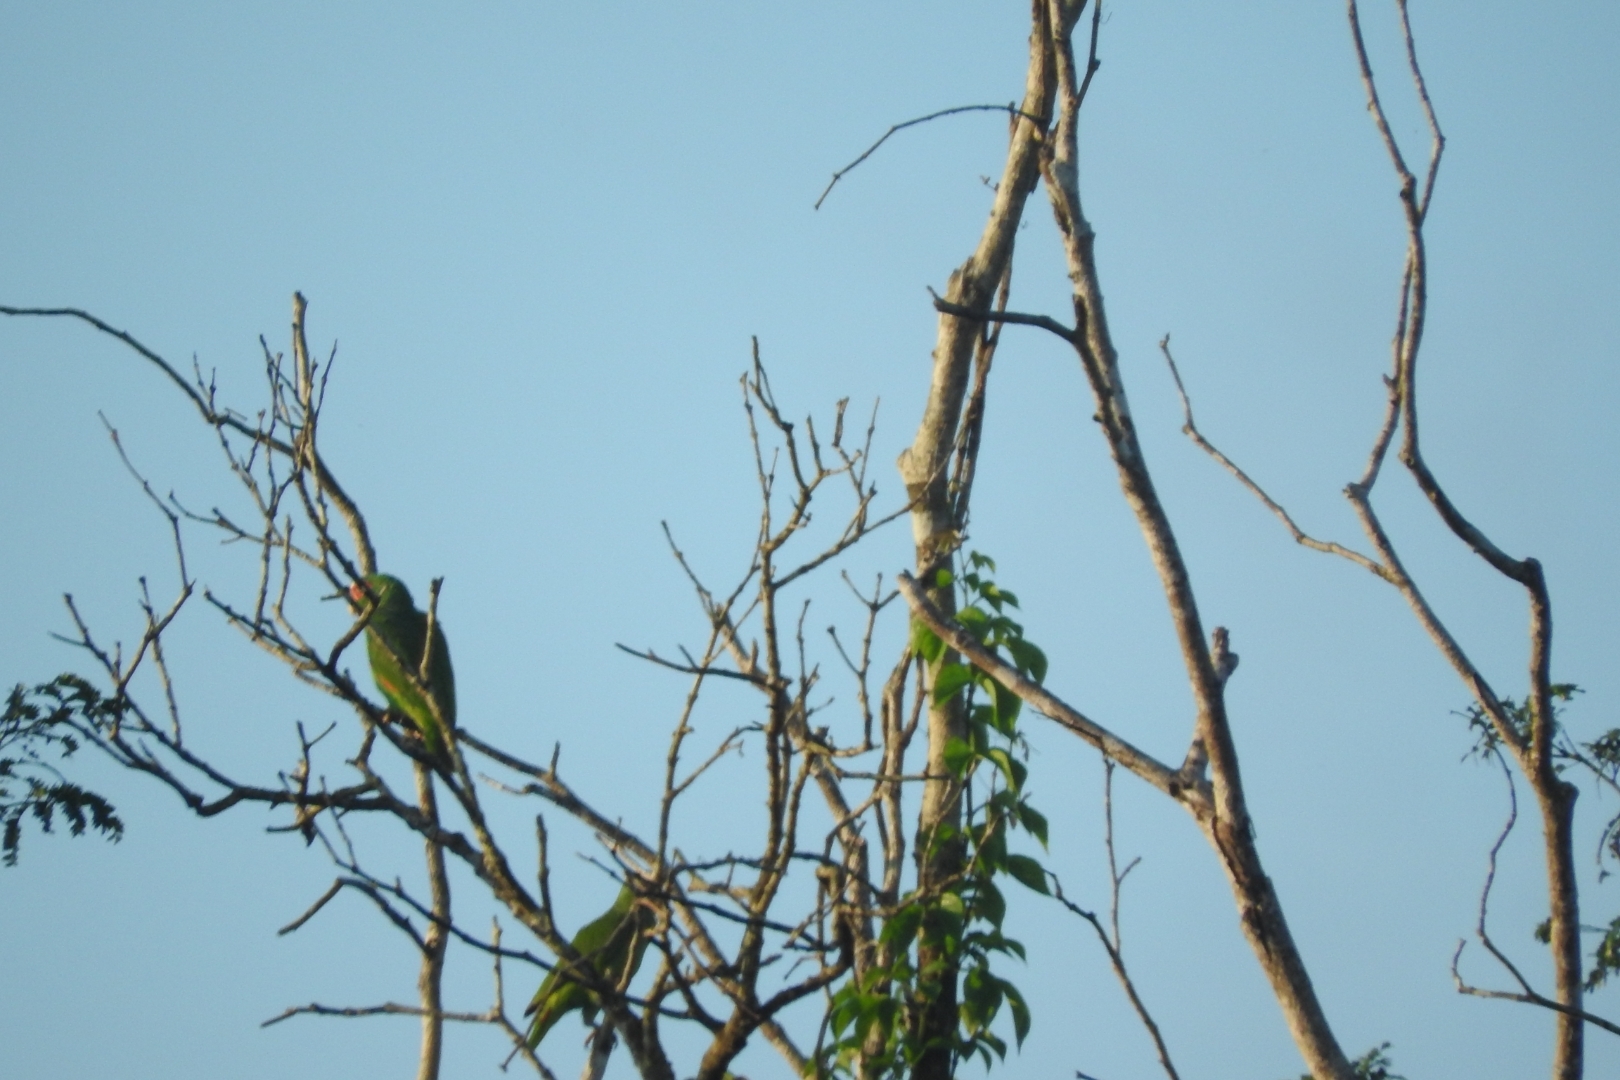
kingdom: Animalia
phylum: Chordata
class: Aves
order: Psittaciformes
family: Psittacidae
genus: Amazona
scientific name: Amazona albifrons
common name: White-fronted amazon
